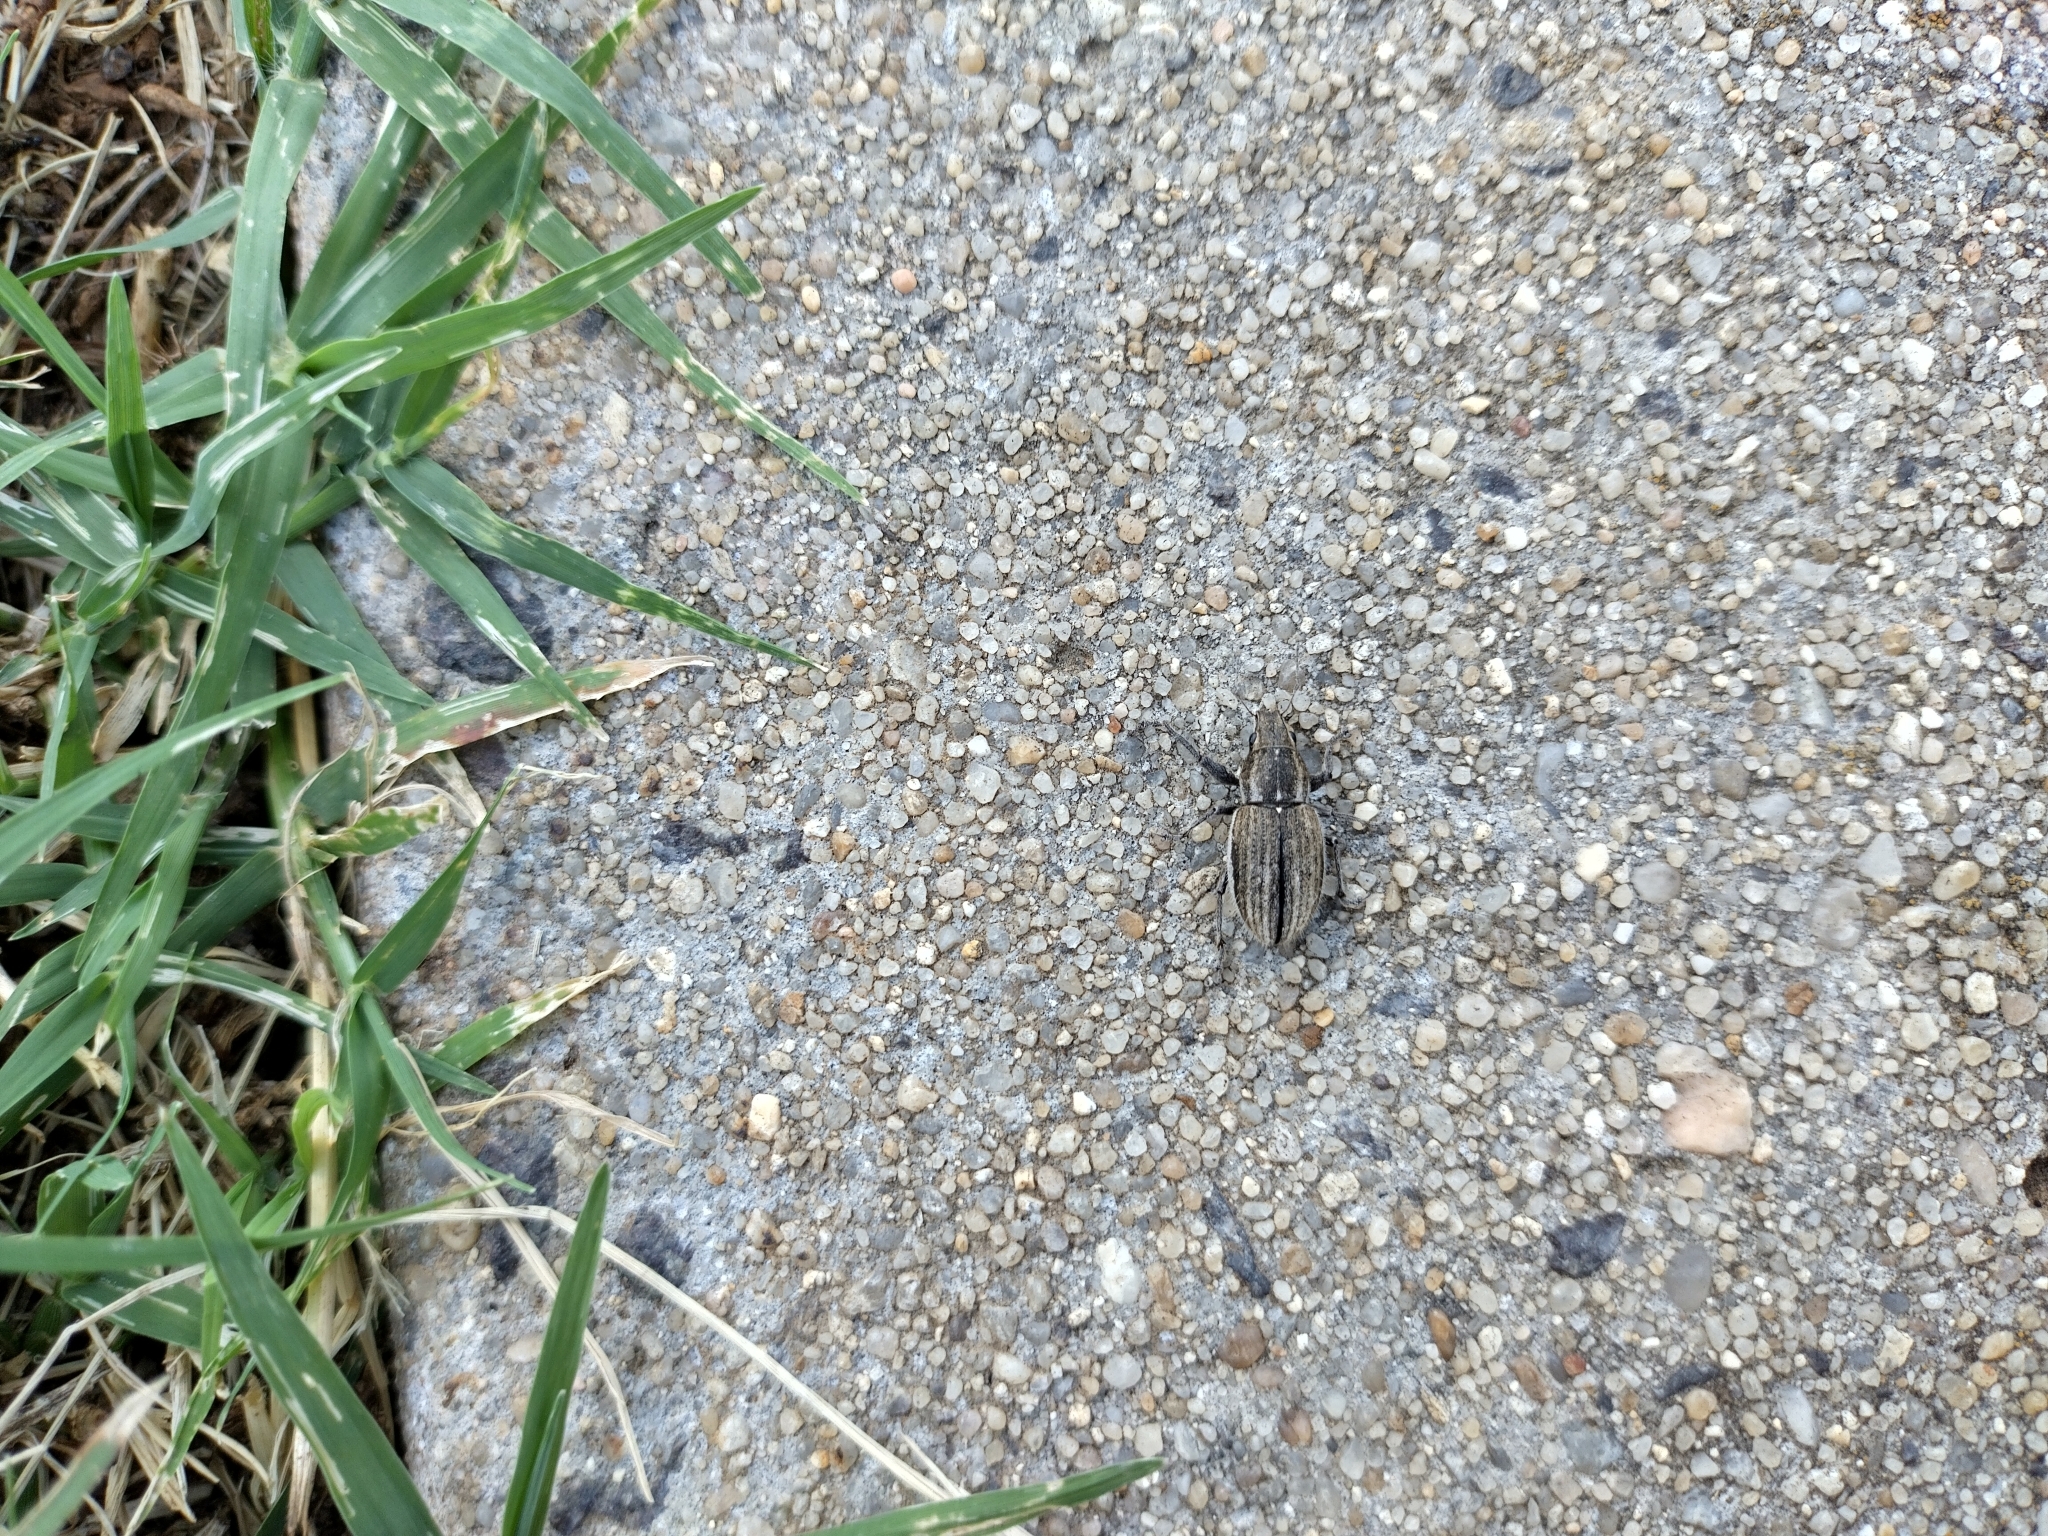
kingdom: Animalia
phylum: Arthropoda
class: Insecta
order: Coleoptera
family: Curculionidae
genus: Naupactus
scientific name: Naupactus leucoloma
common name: Whitefringed beetle
